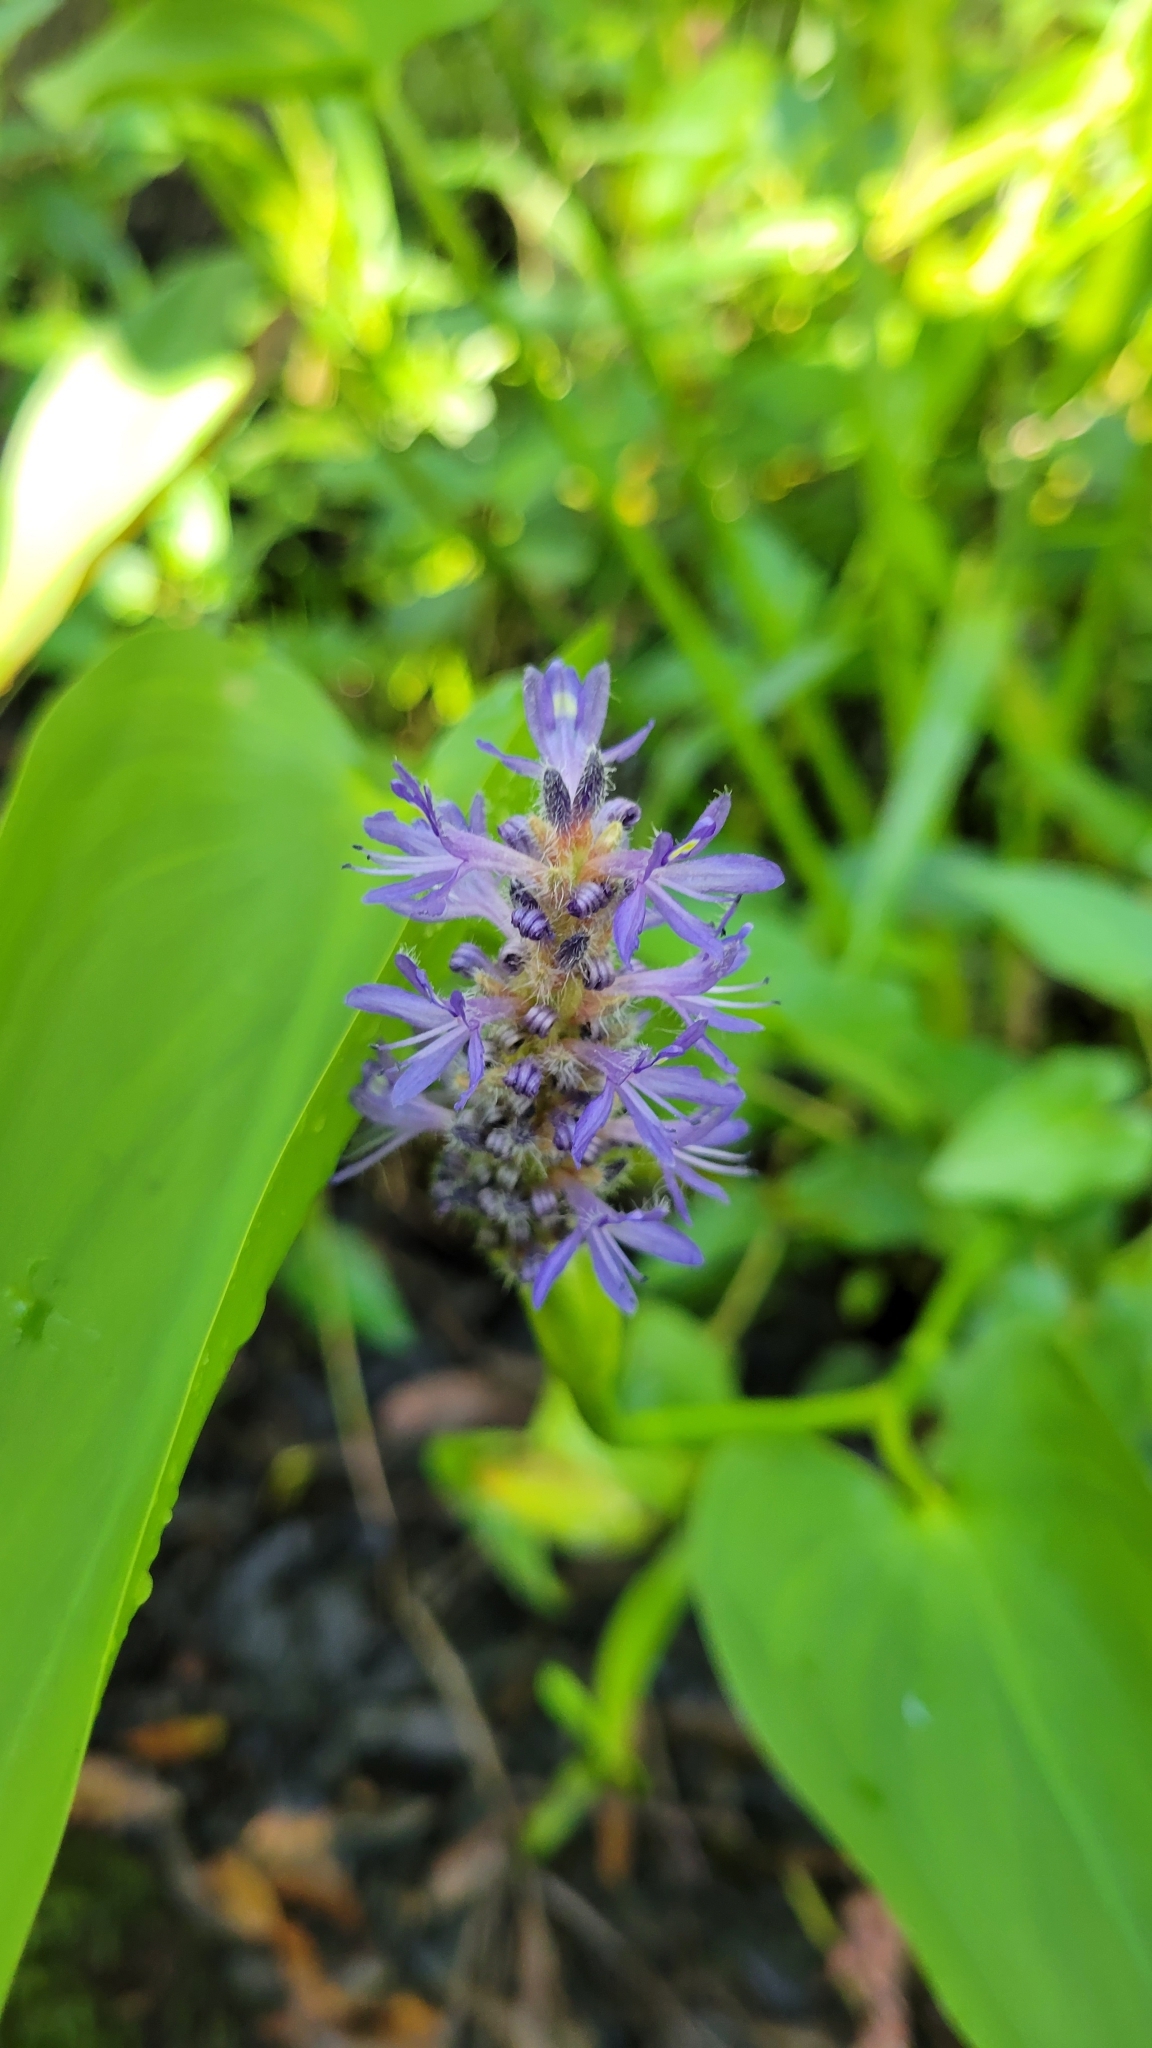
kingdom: Plantae
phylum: Tracheophyta
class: Liliopsida
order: Commelinales
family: Pontederiaceae
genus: Pontederia
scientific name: Pontederia cordata
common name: Pickerelweed
